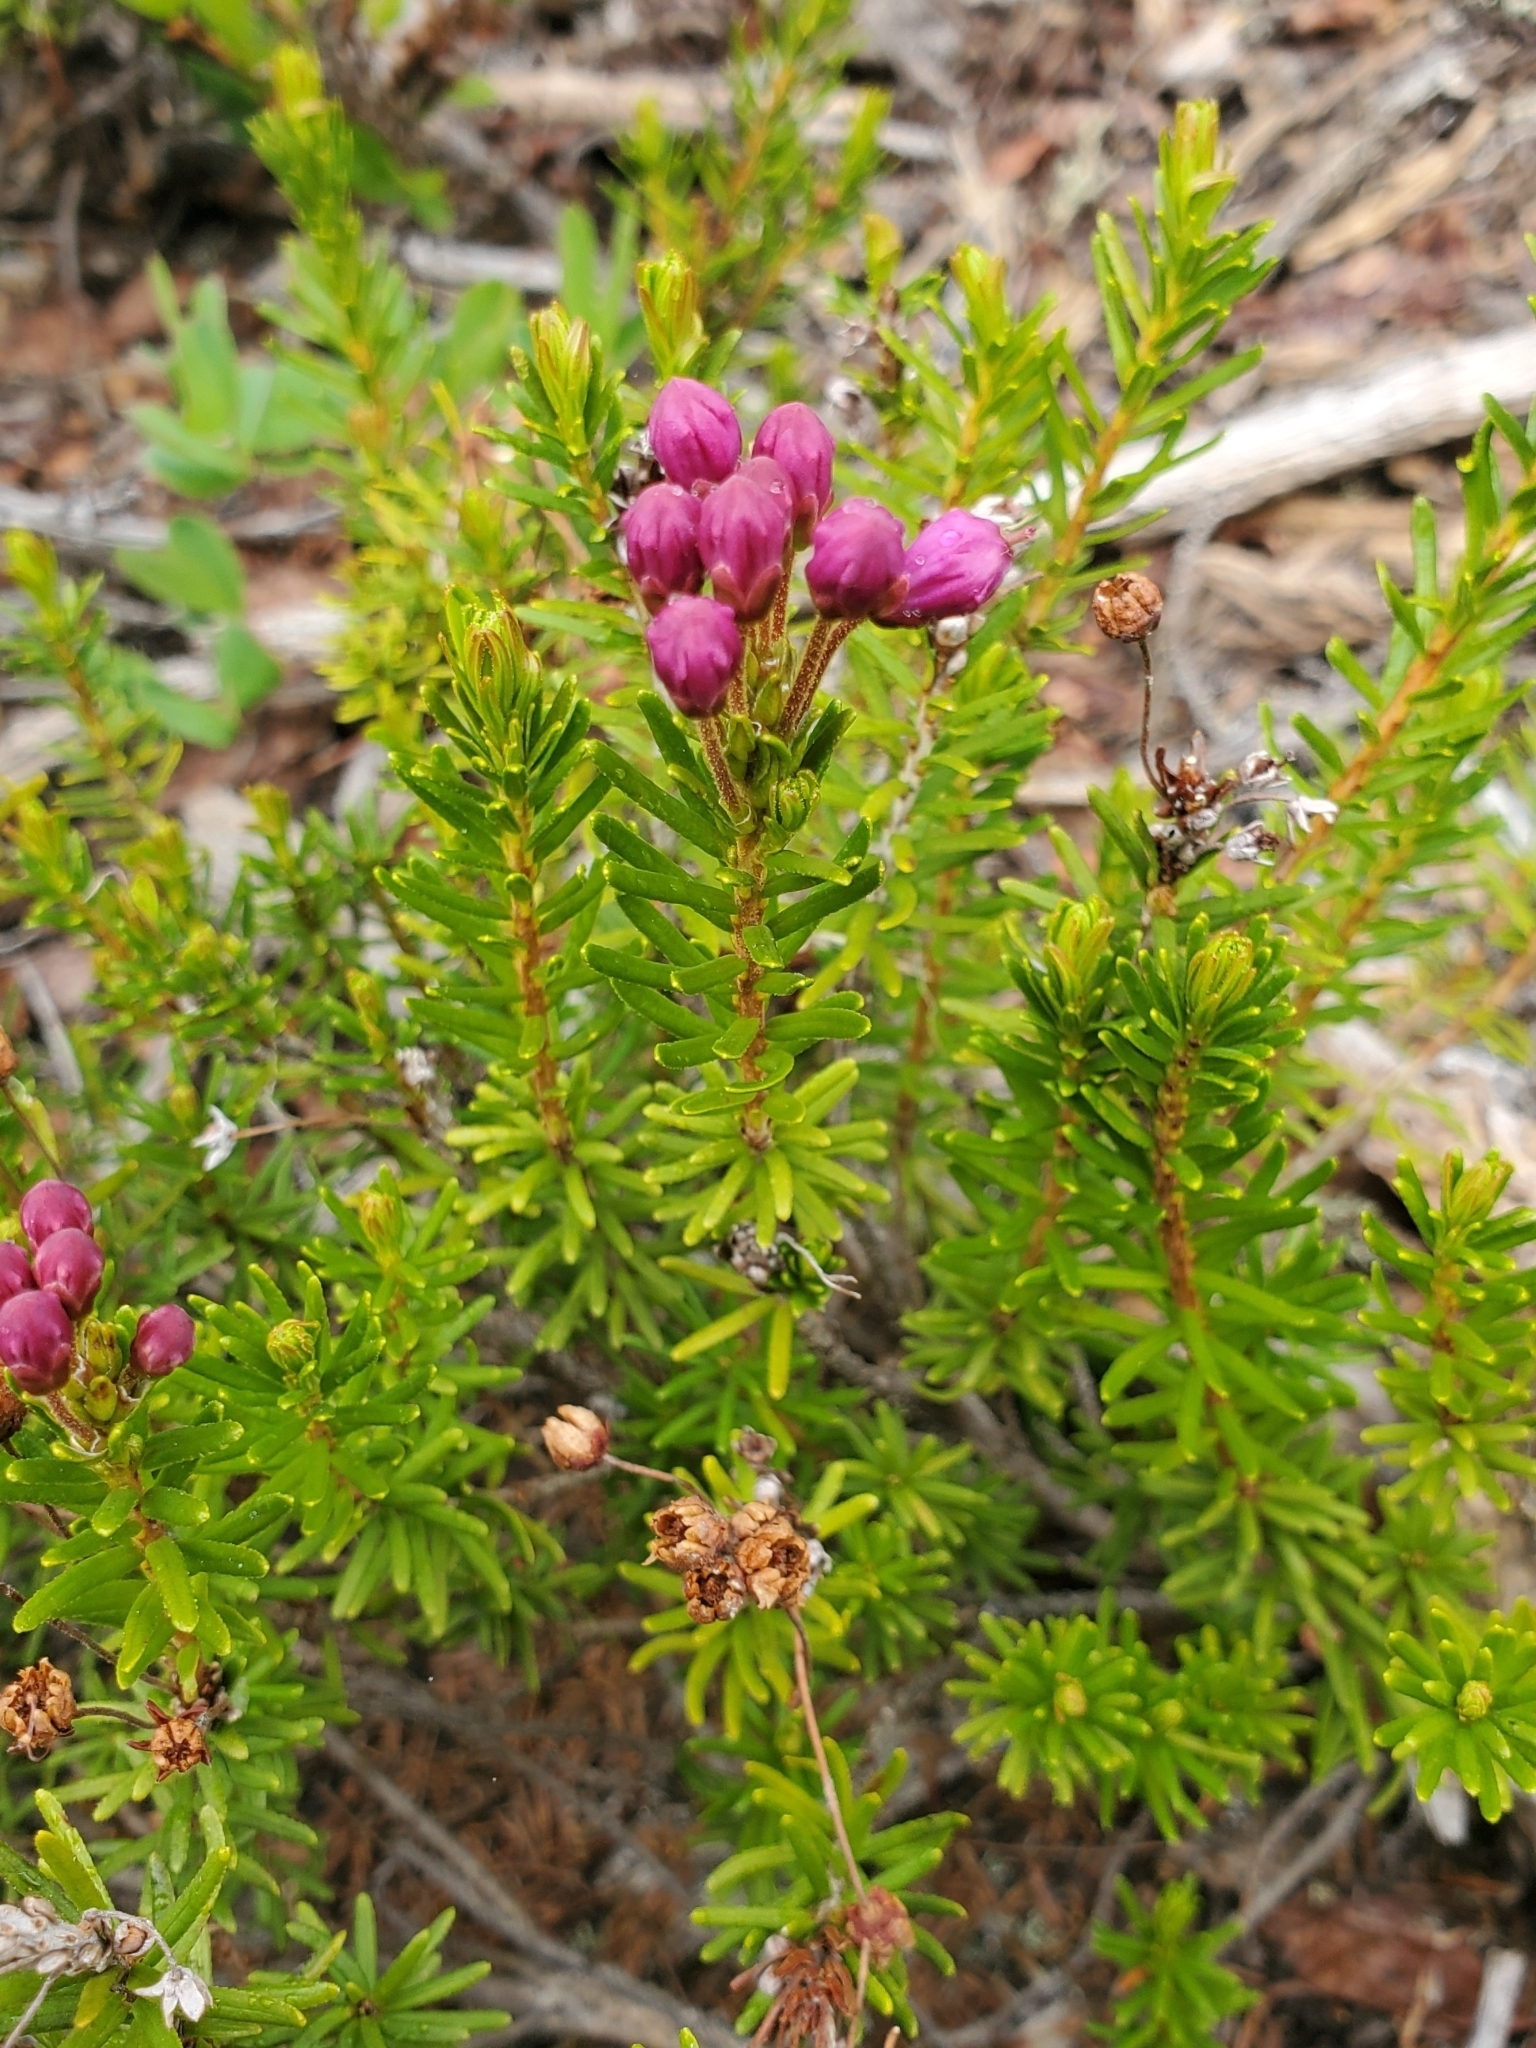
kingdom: Plantae
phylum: Tracheophyta
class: Magnoliopsida
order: Ericales
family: Ericaceae
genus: Phyllodoce
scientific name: Phyllodoce empetriformis
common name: Pink mountain heather
